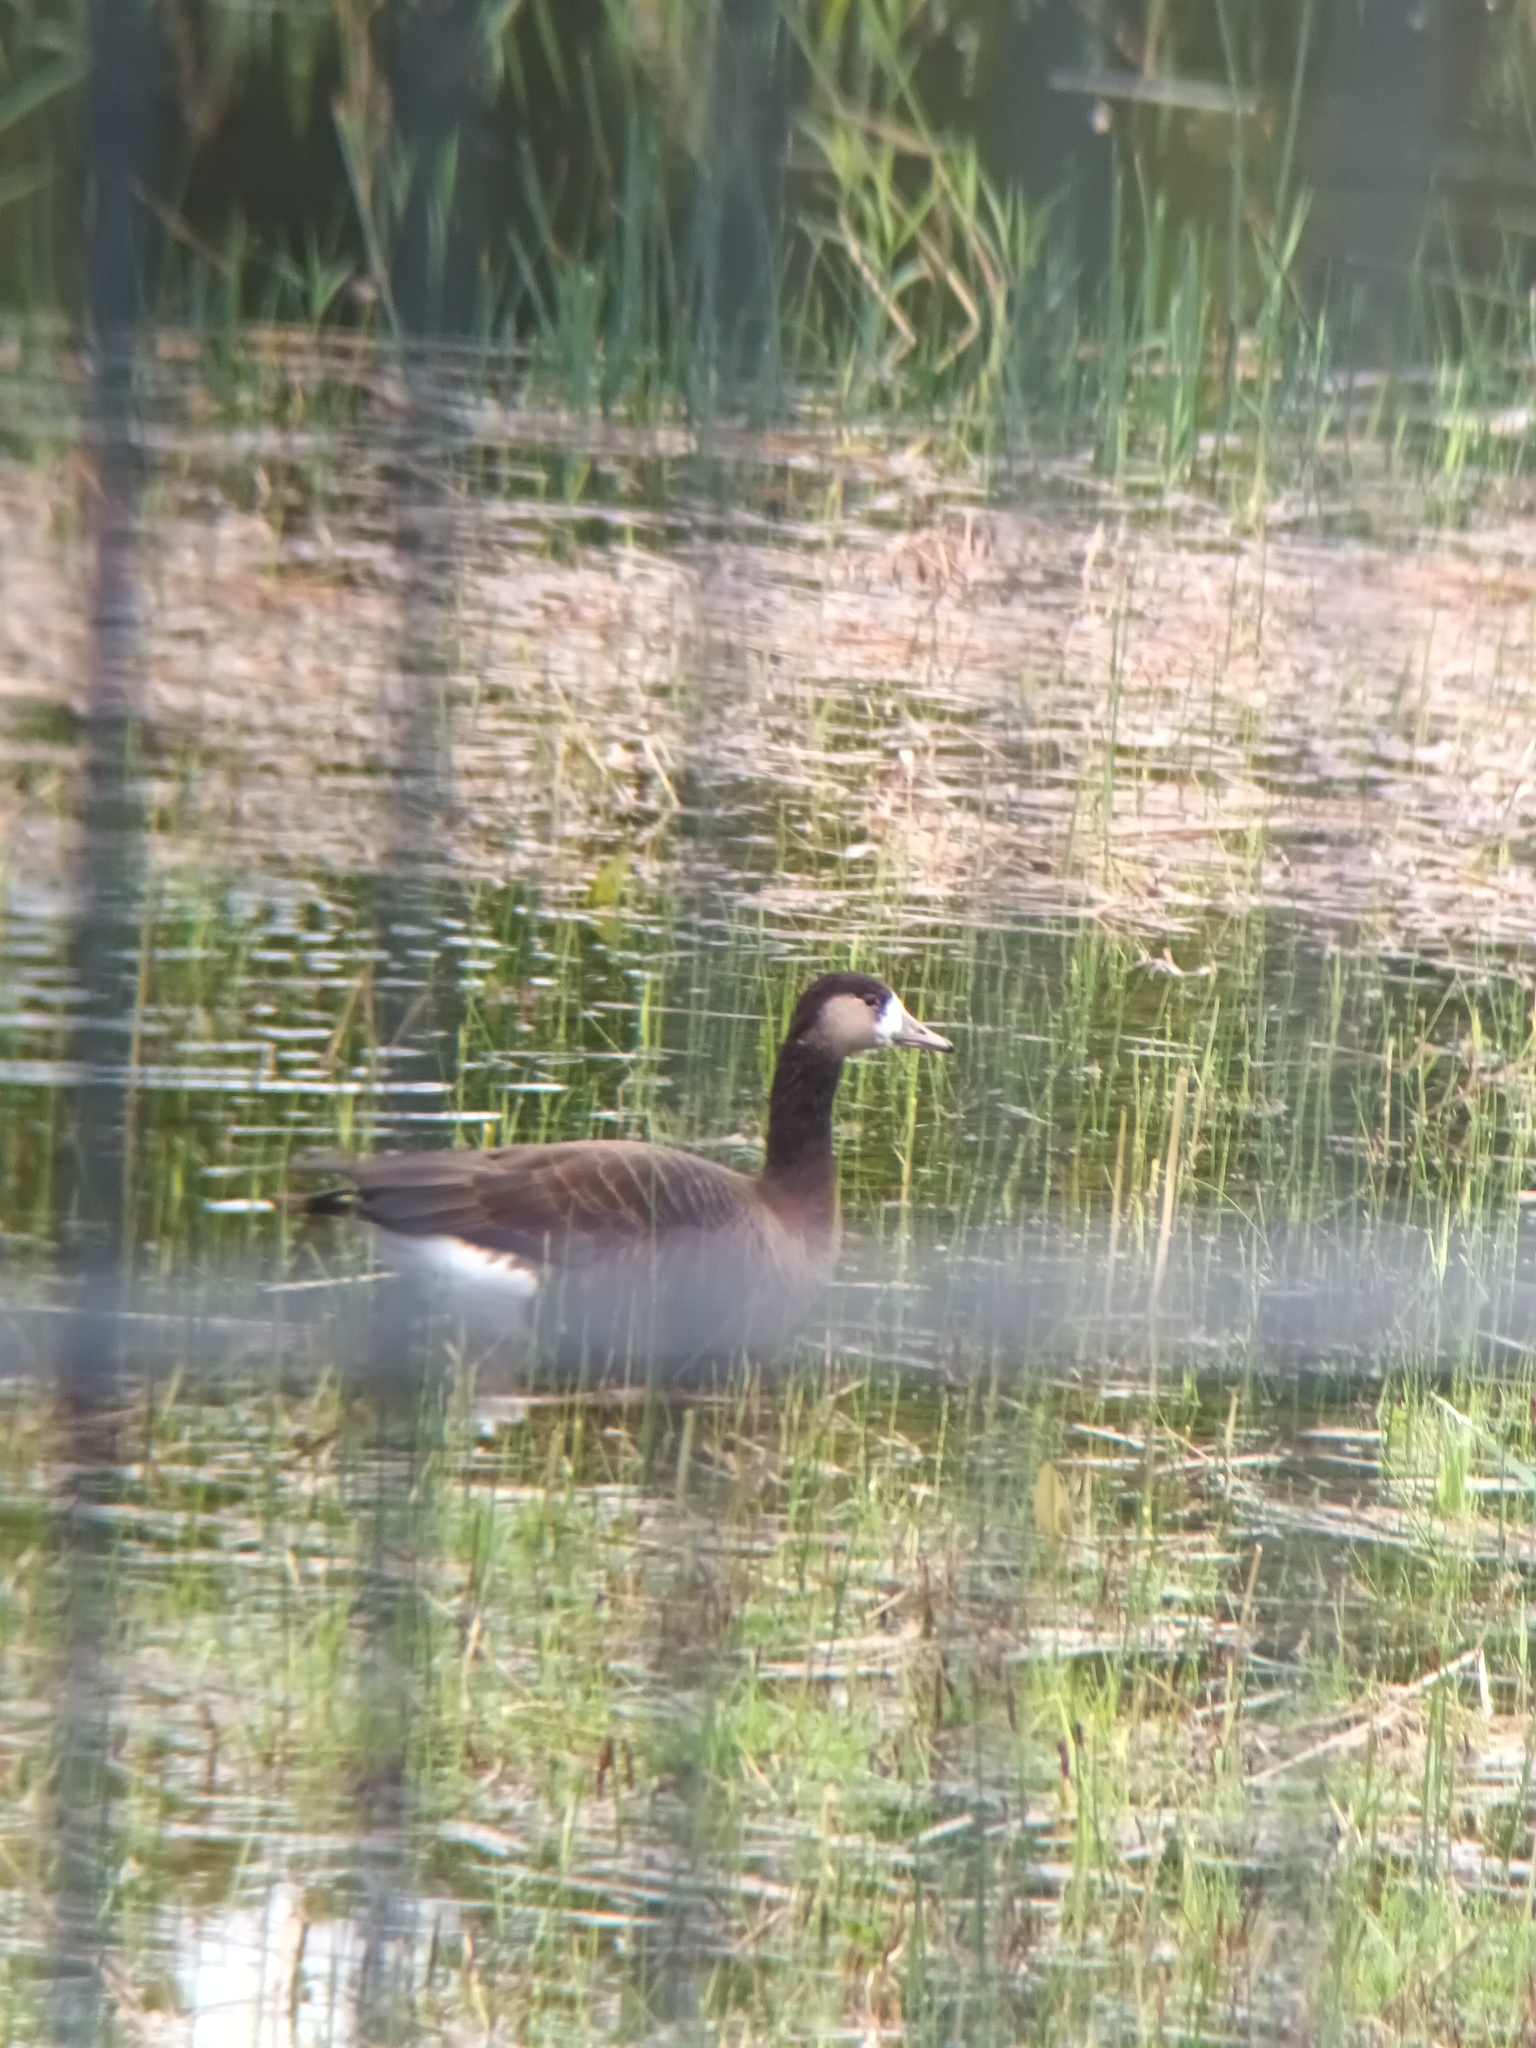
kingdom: Animalia
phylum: Chordata
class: Aves
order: Anseriformes
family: Anatidae
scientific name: Anatidae
